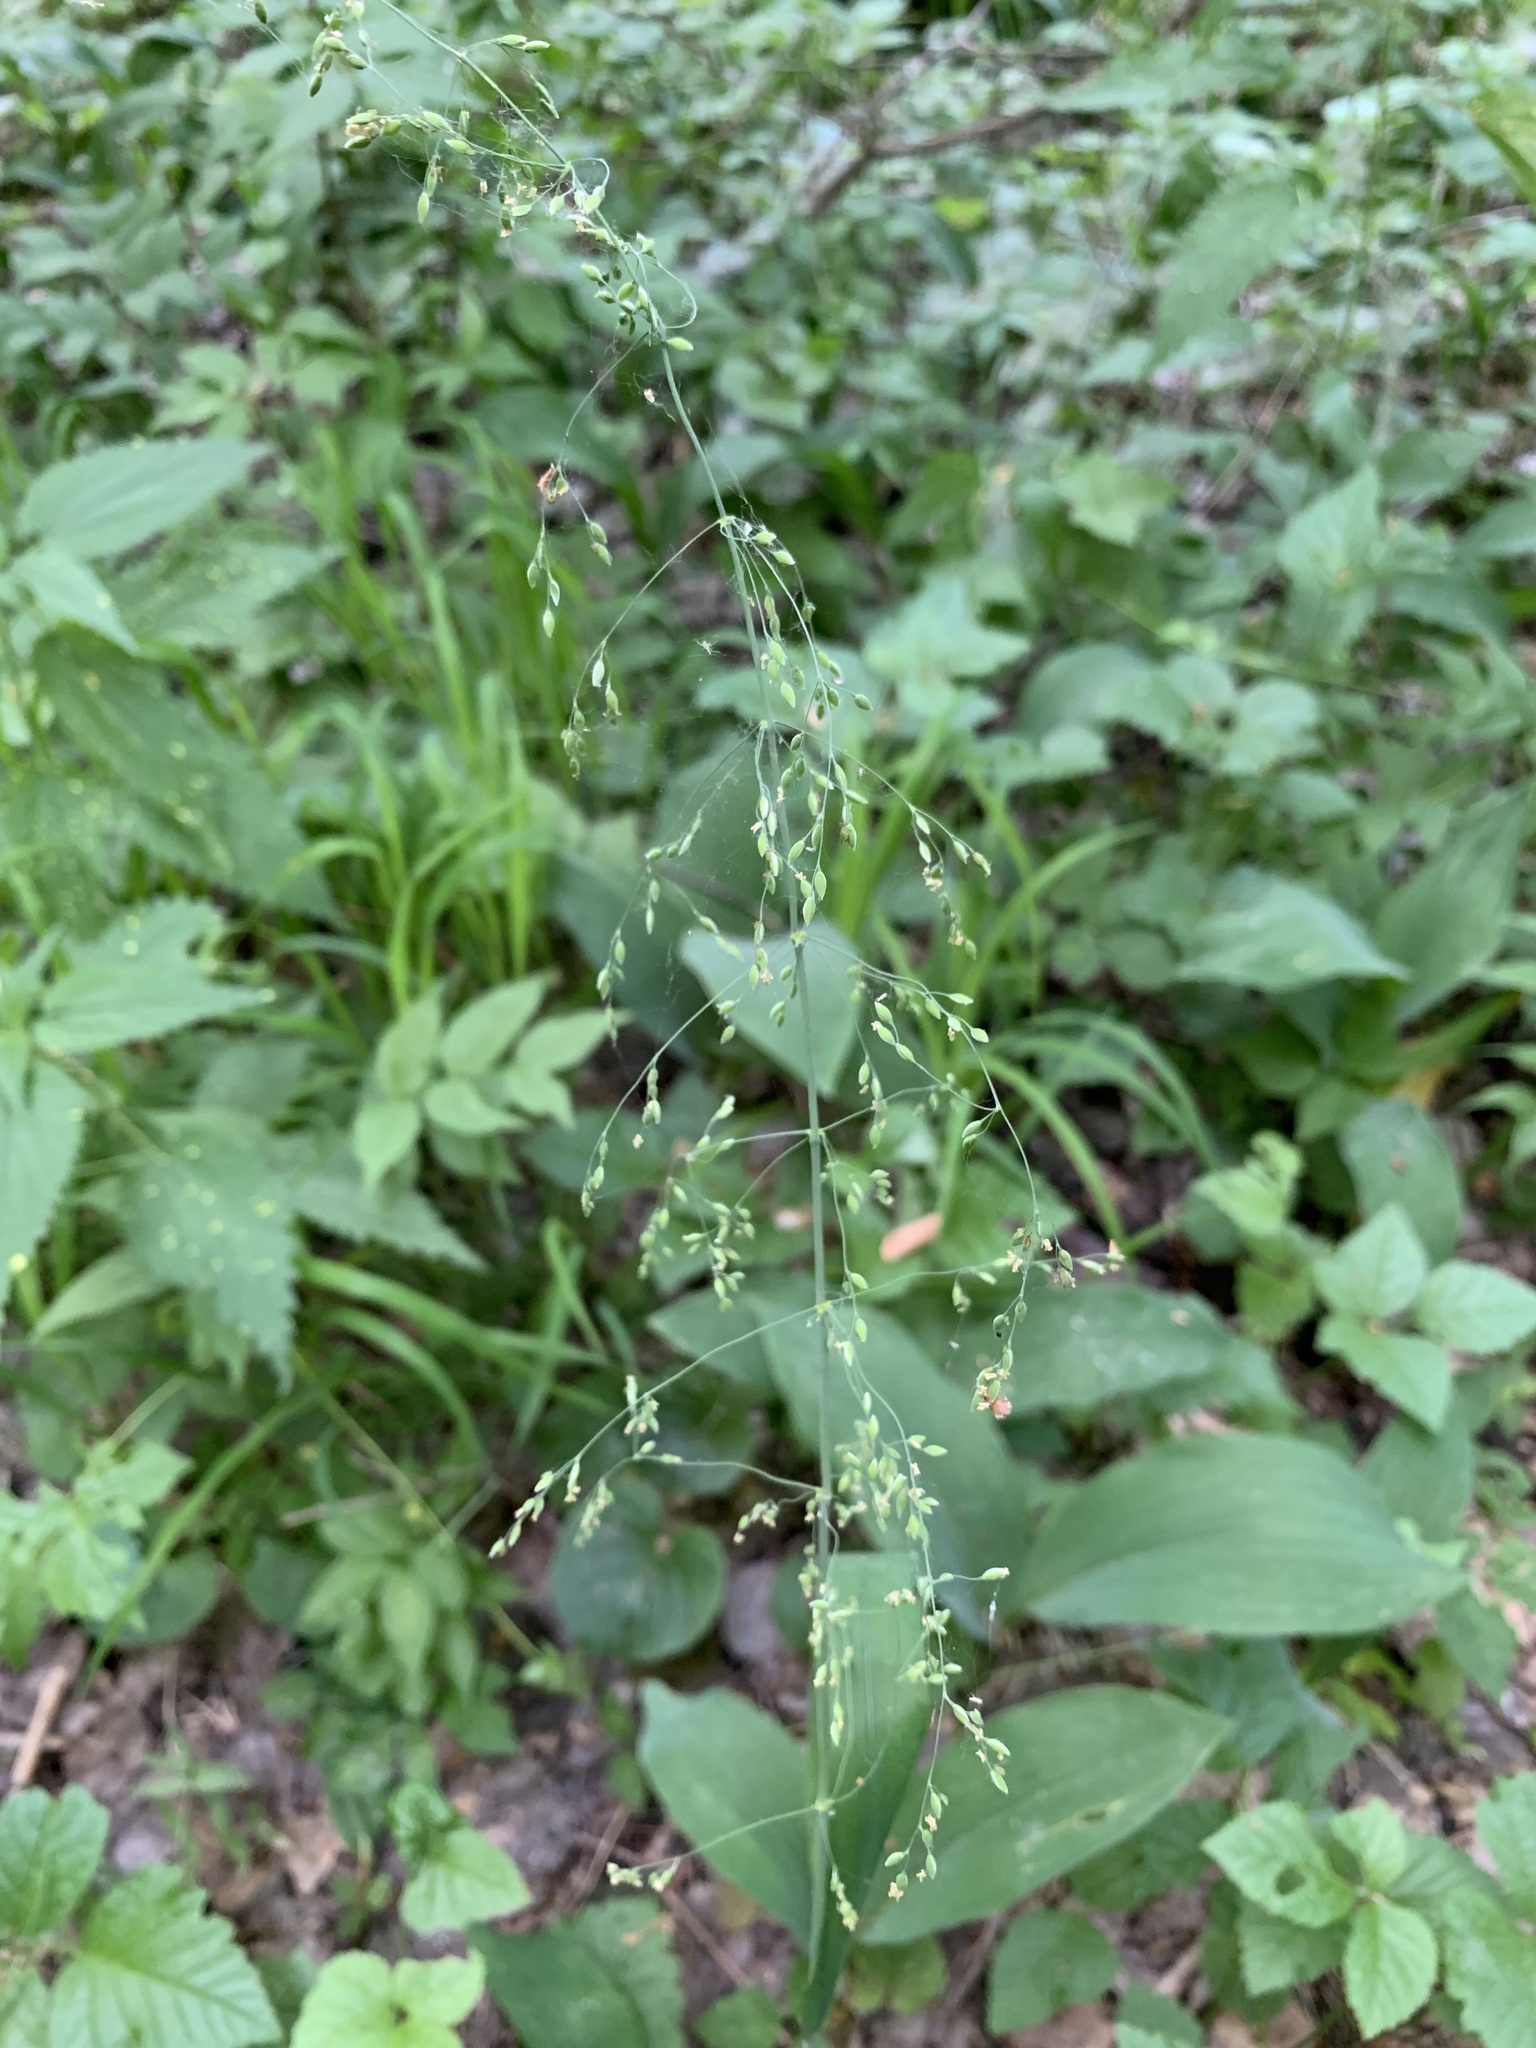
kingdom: Plantae
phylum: Tracheophyta
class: Liliopsida
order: Poales
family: Poaceae
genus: Milium
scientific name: Milium effusum
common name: Wood millet
